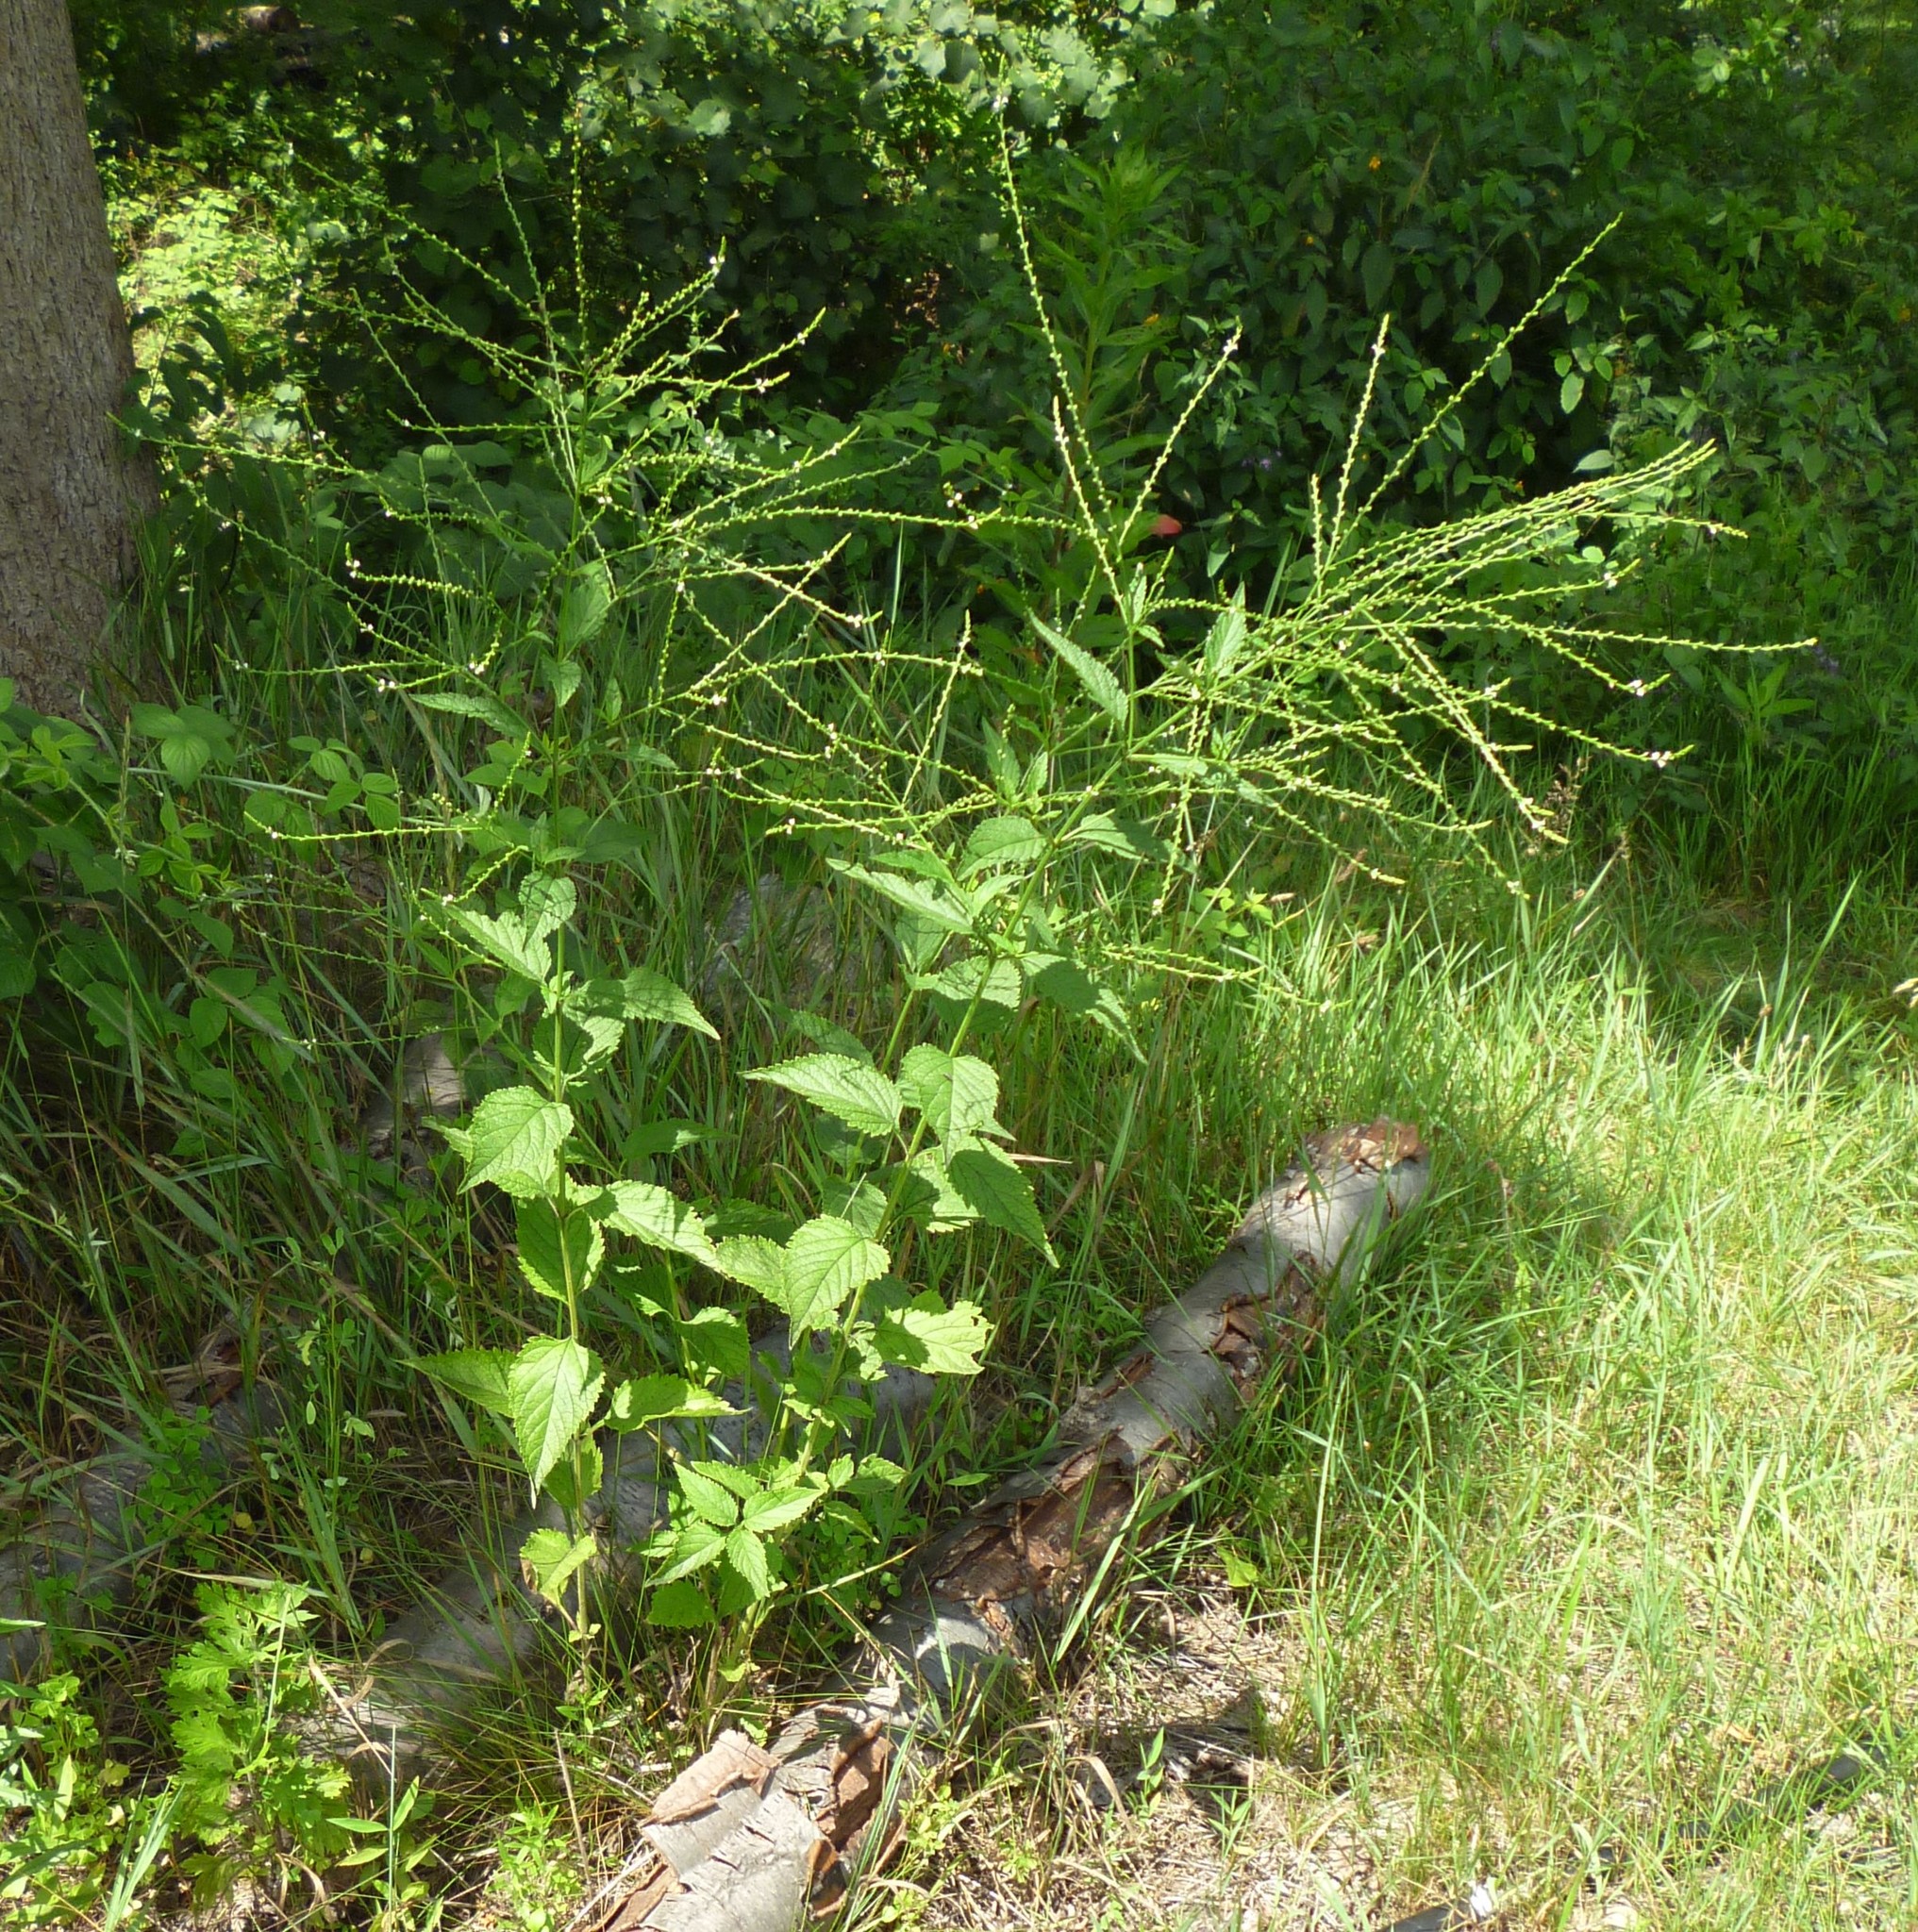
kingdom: Plantae
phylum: Tracheophyta
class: Magnoliopsida
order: Lamiales
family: Verbenaceae
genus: Verbena
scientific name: Verbena urticifolia
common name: Nettle-leaved vervain
